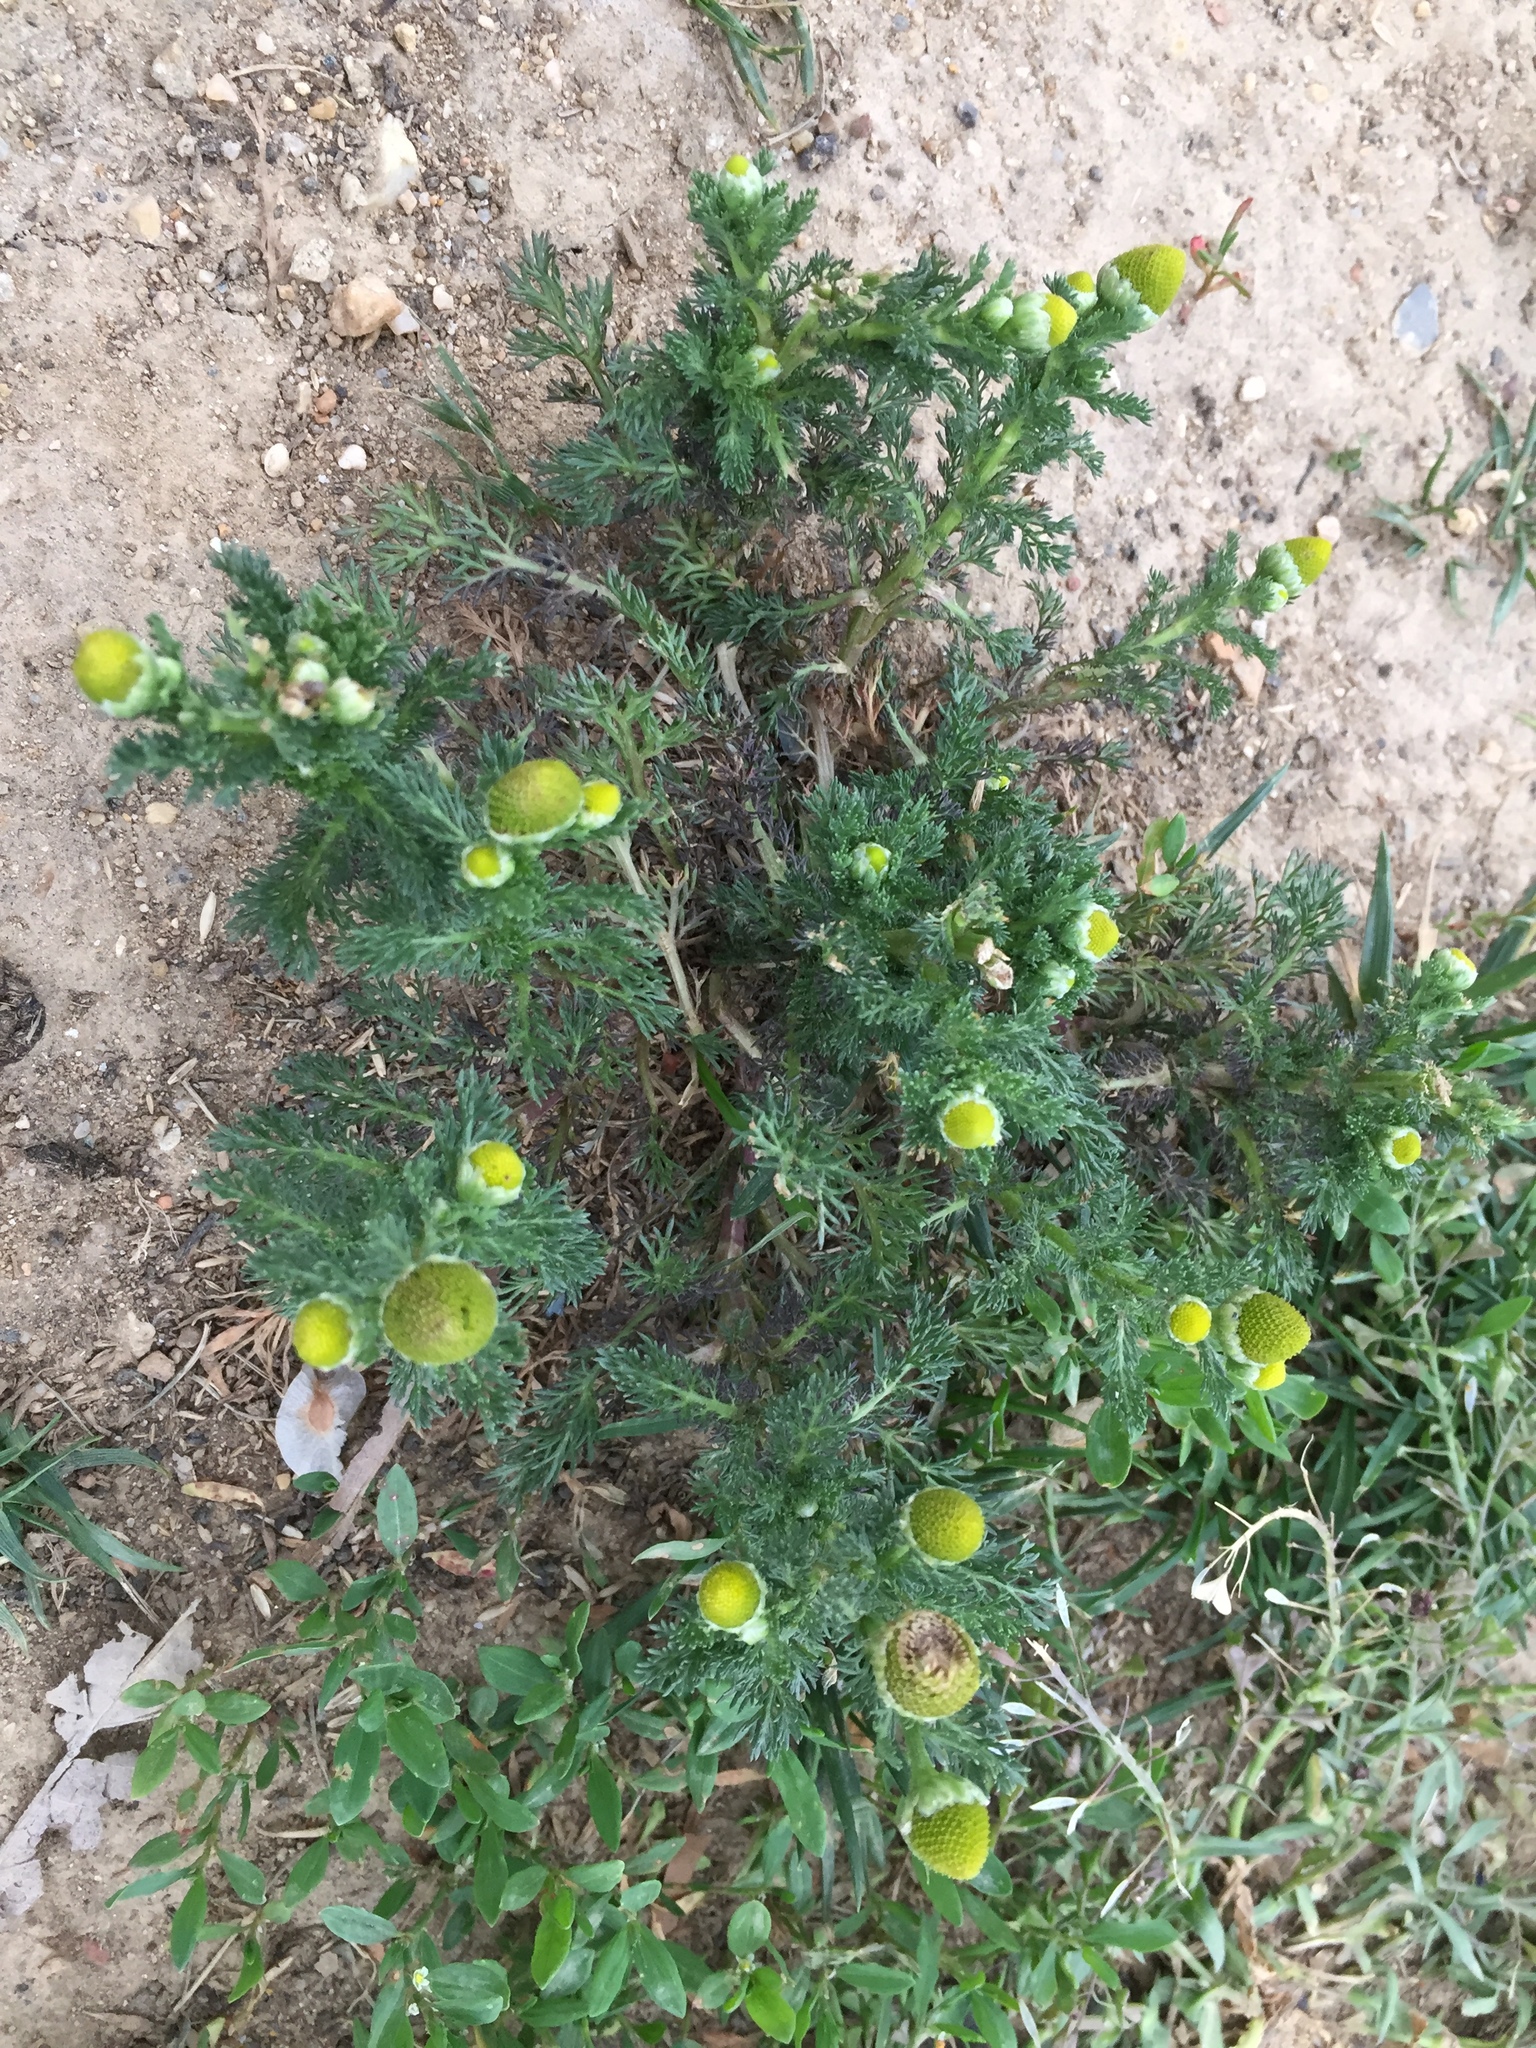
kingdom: Plantae
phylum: Tracheophyta
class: Magnoliopsida
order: Asterales
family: Asteraceae
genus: Matricaria
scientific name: Matricaria discoidea
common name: Disc mayweed
